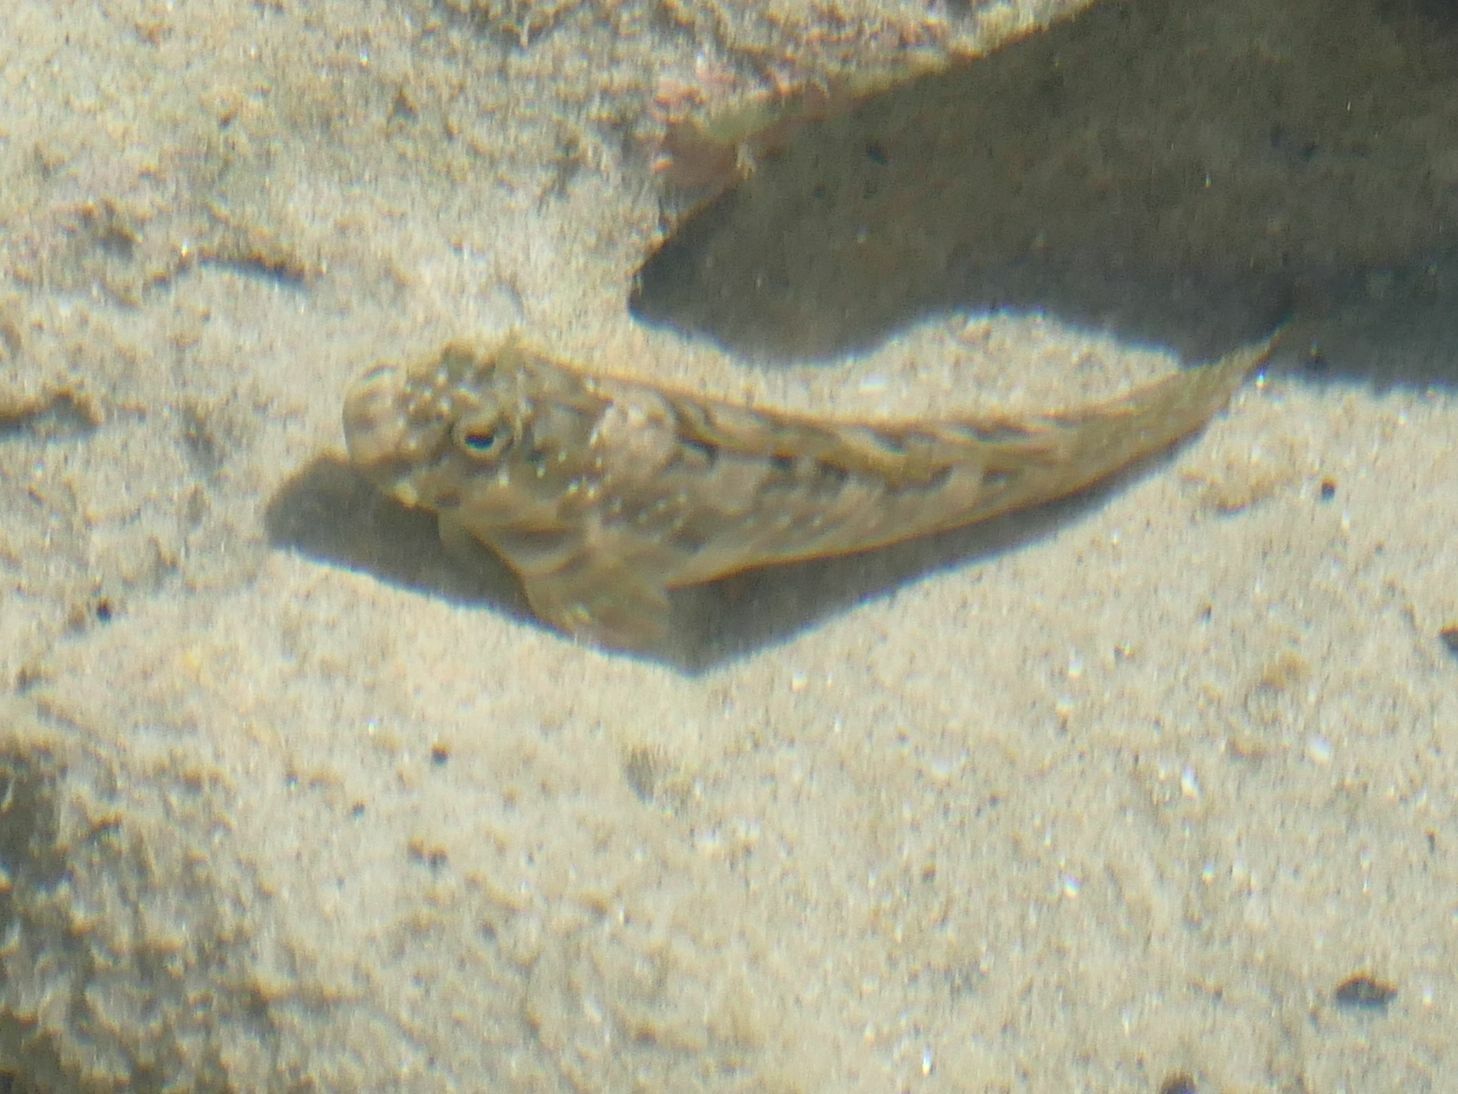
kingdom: Animalia
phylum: Chordata
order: Perciformes
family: Blenniidae
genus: Istiblennius
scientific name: Istiblennius meleagris
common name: Peacock rockskipper
